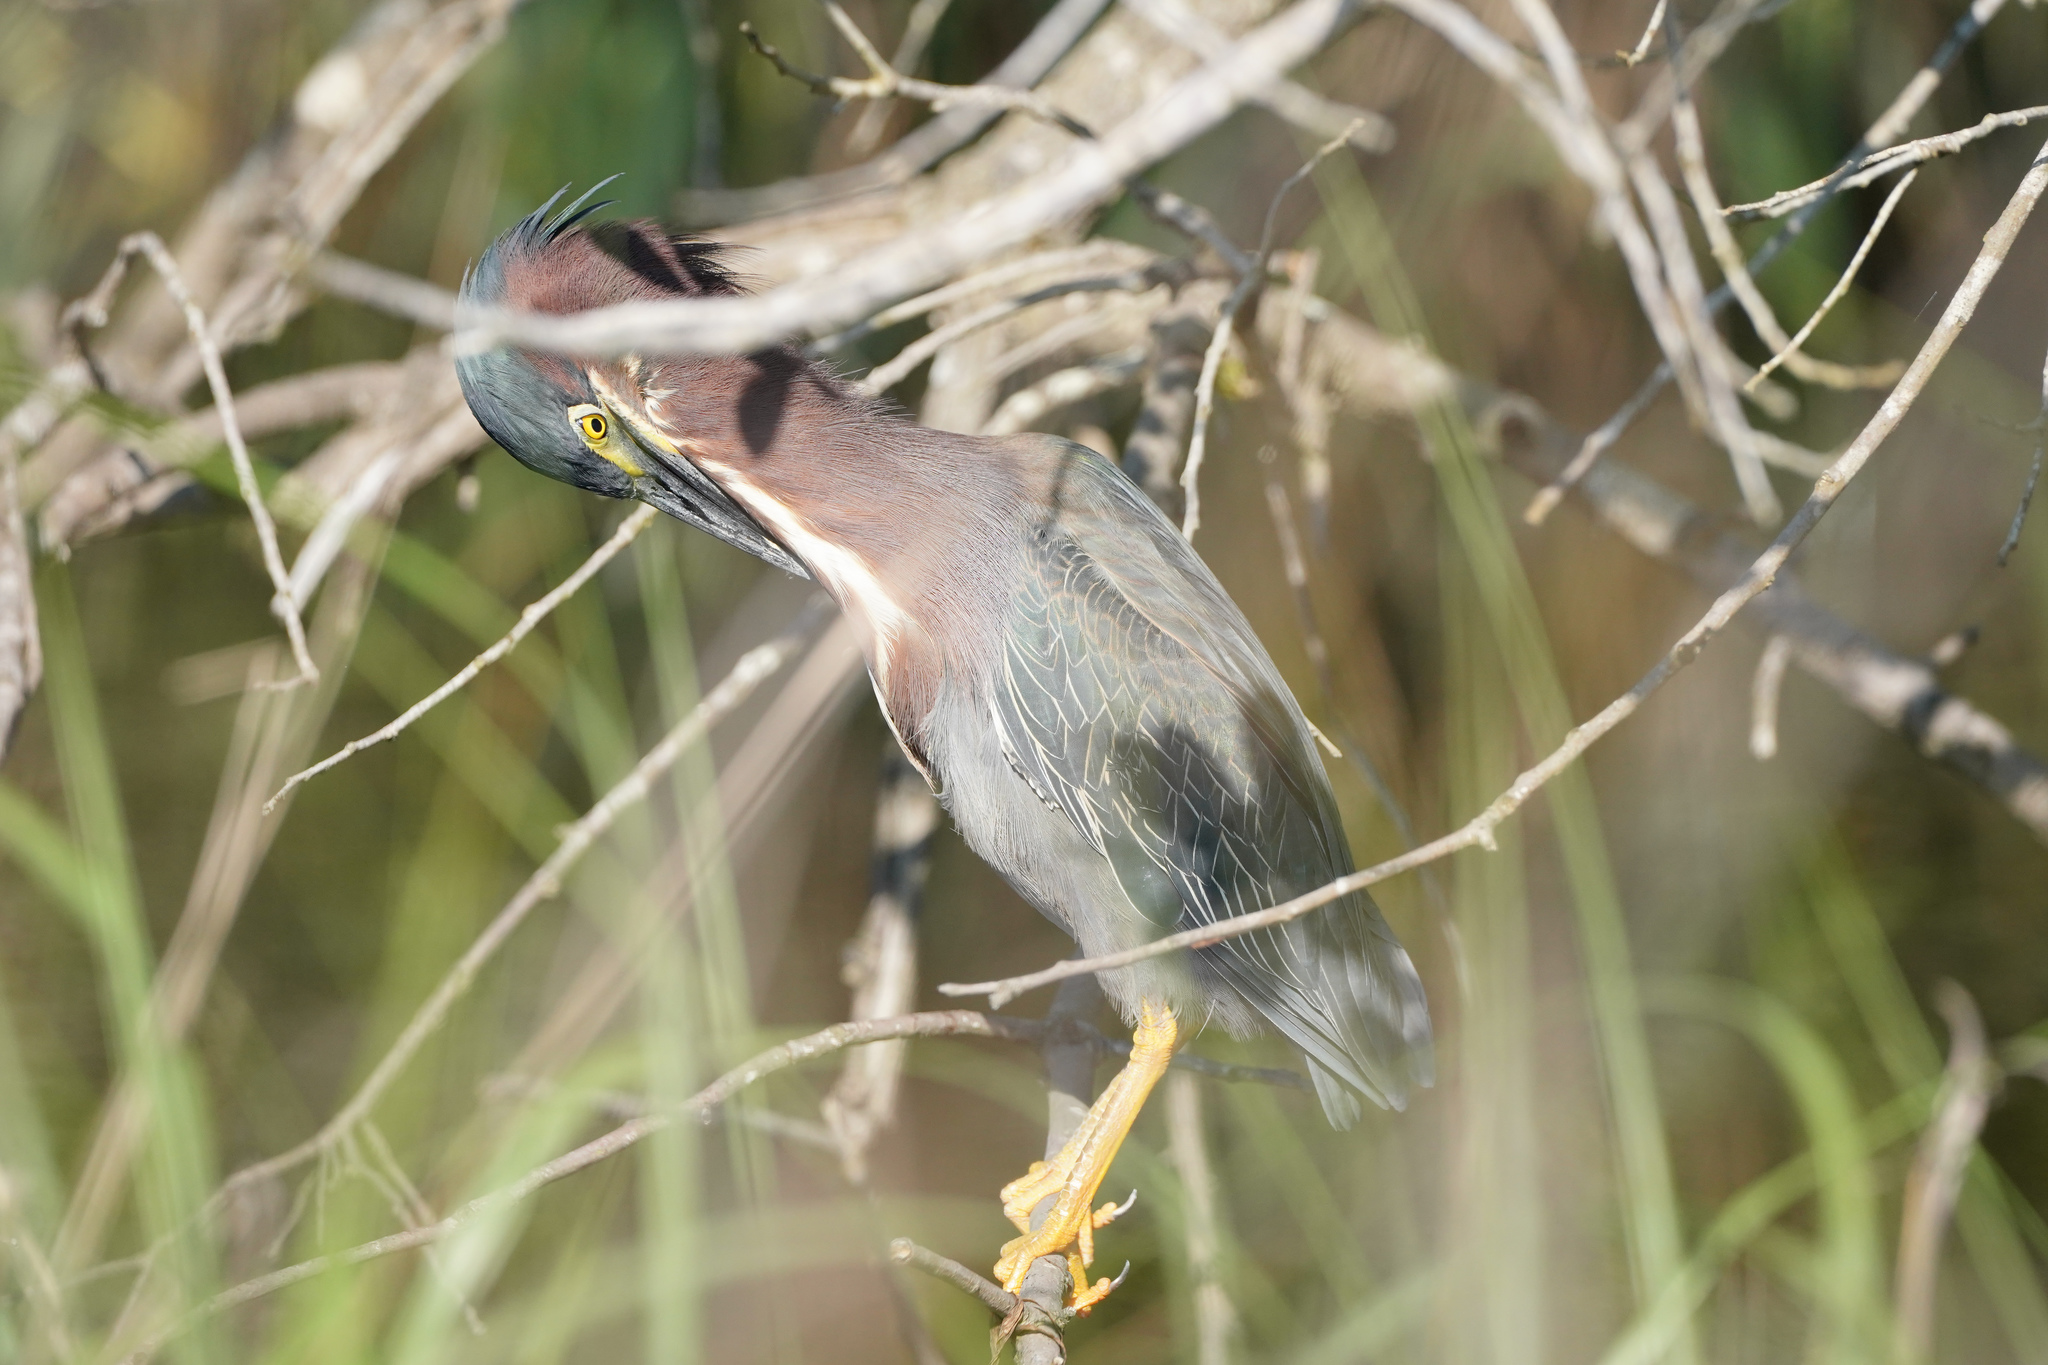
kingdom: Animalia
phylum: Chordata
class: Aves
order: Pelecaniformes
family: Ardeidae
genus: Butorides
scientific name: Butorides virescens
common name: Green heron
